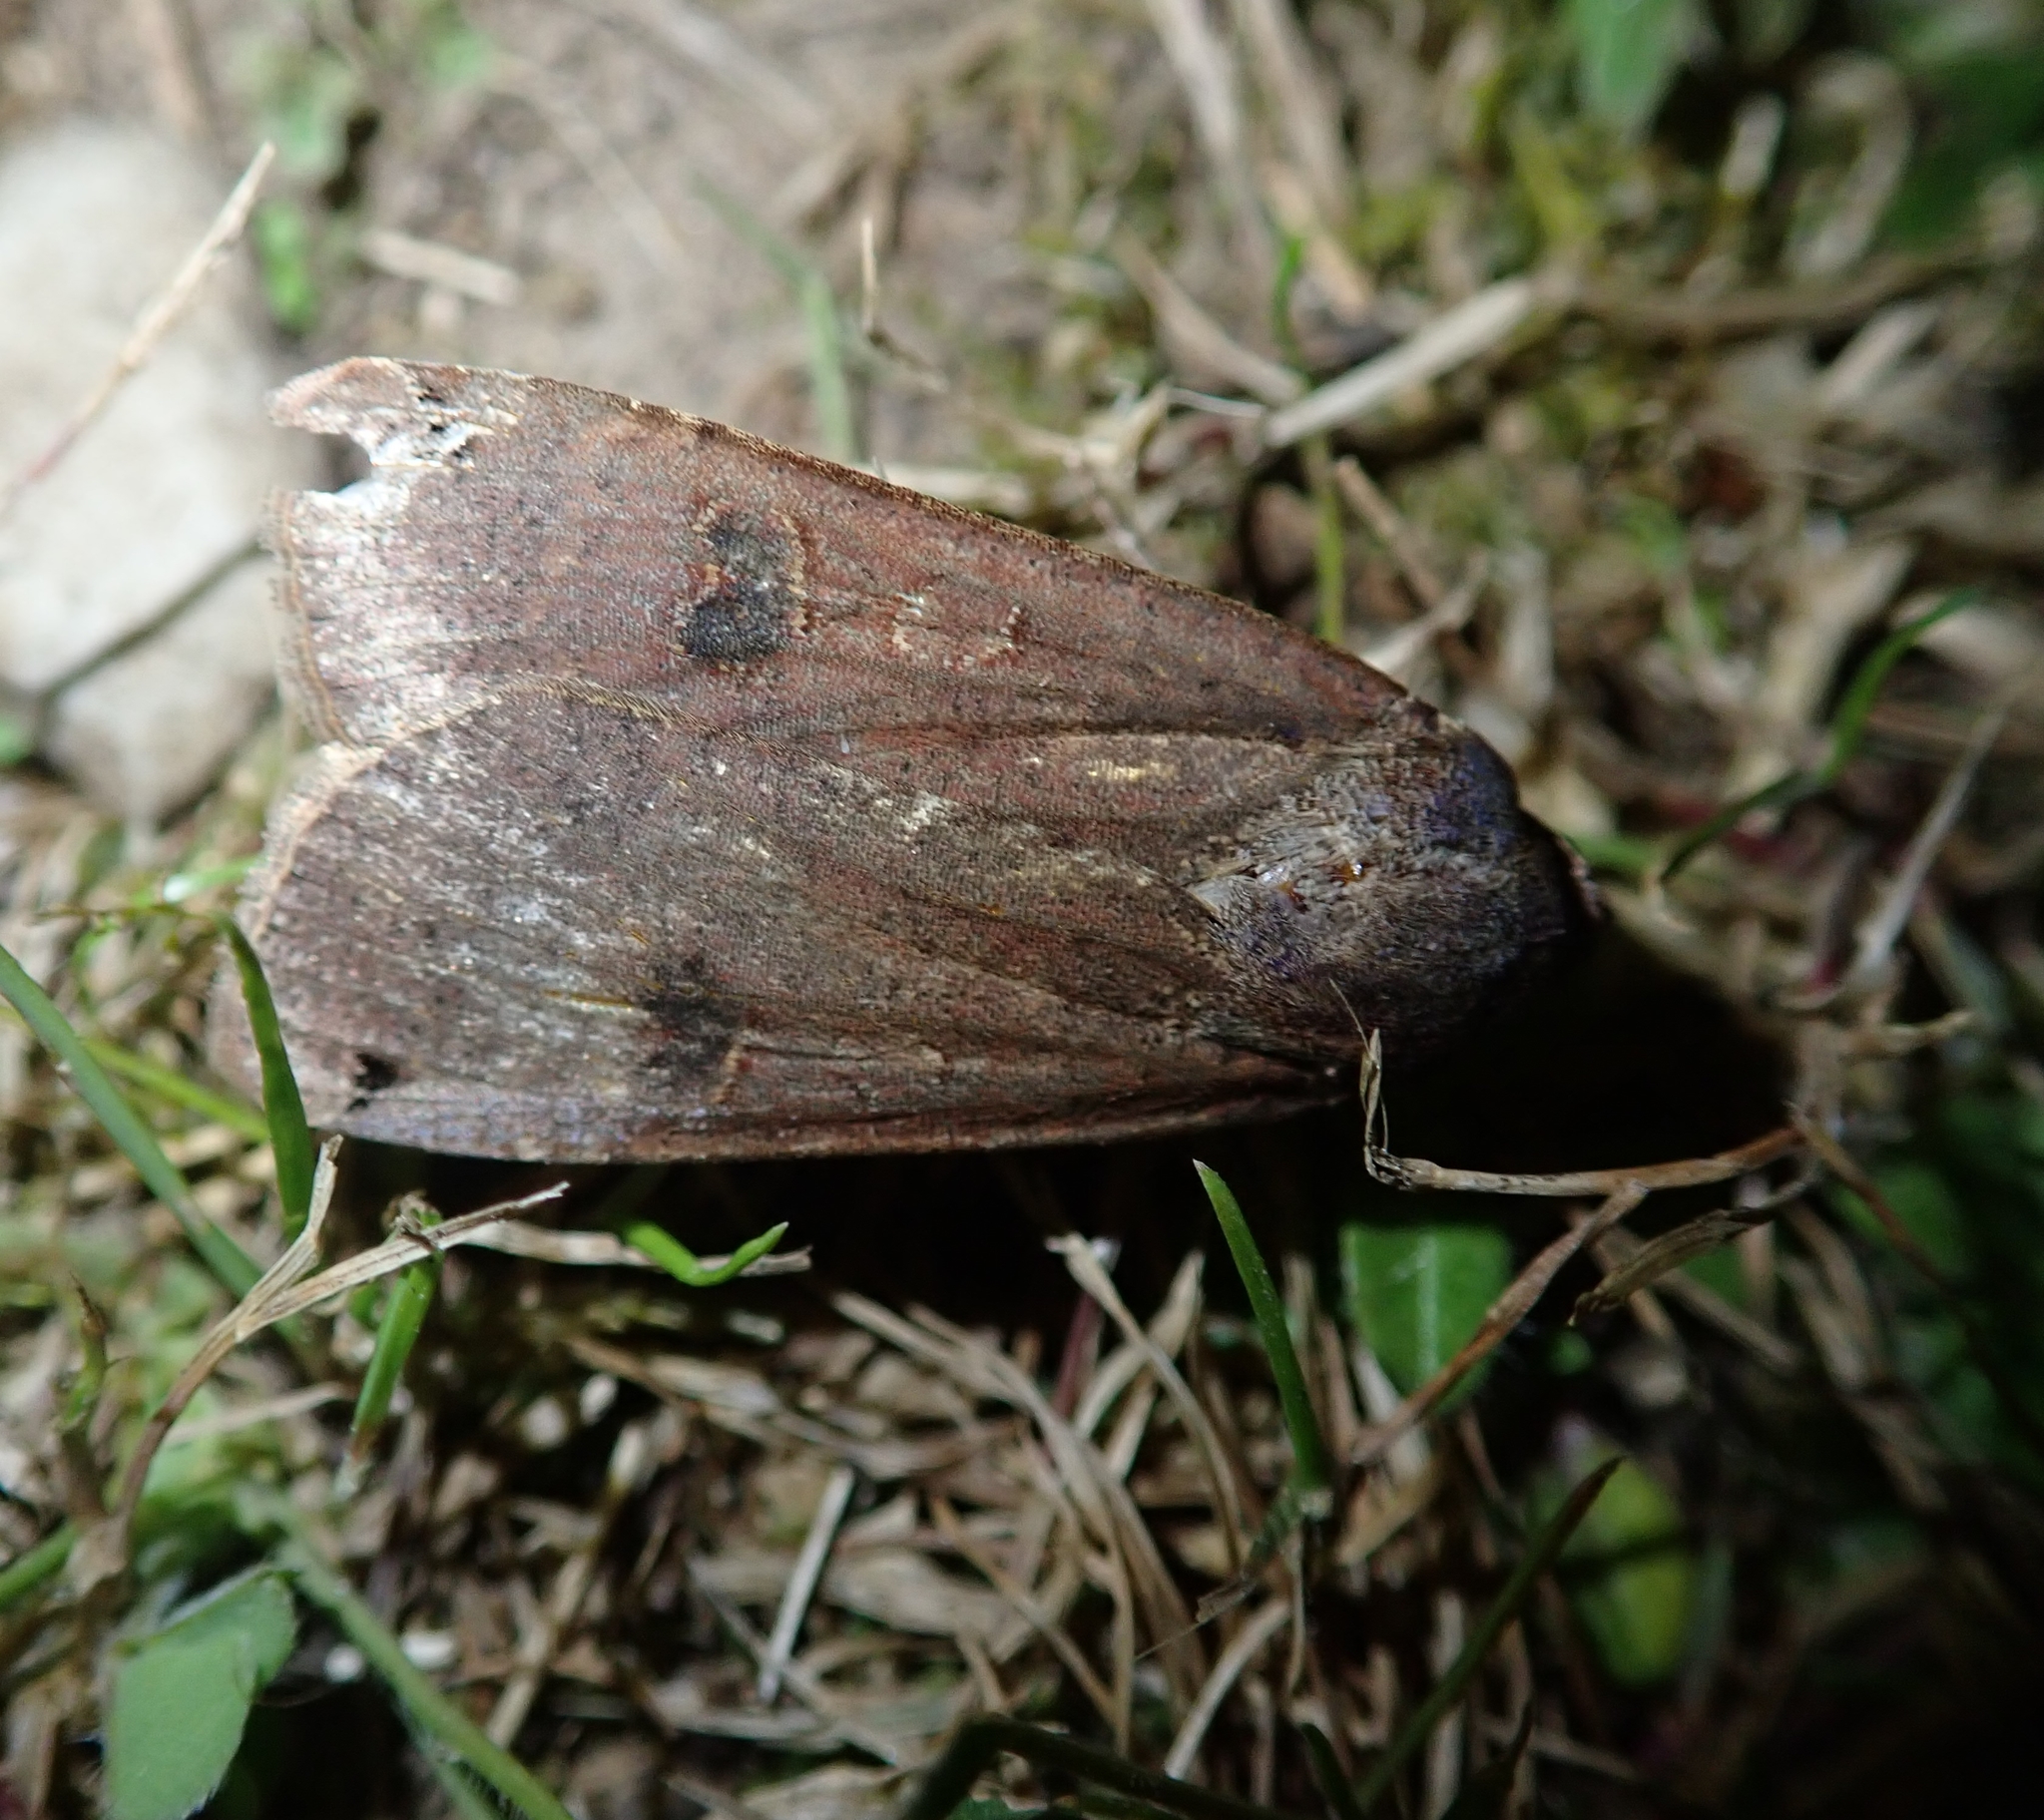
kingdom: Animalia
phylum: Arthropoda
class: Insecta
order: Lepidoptera
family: Noctuidae
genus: Noctua
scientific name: Noctua pronuba
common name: Large yellow underwing
